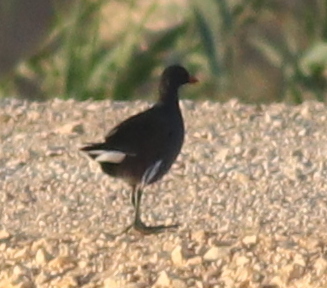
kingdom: Animalia
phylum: Chordata
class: Aves
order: Gruiformes
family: Rallidae
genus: Gallinula
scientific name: Gallinula chloropus
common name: Common moorhen
